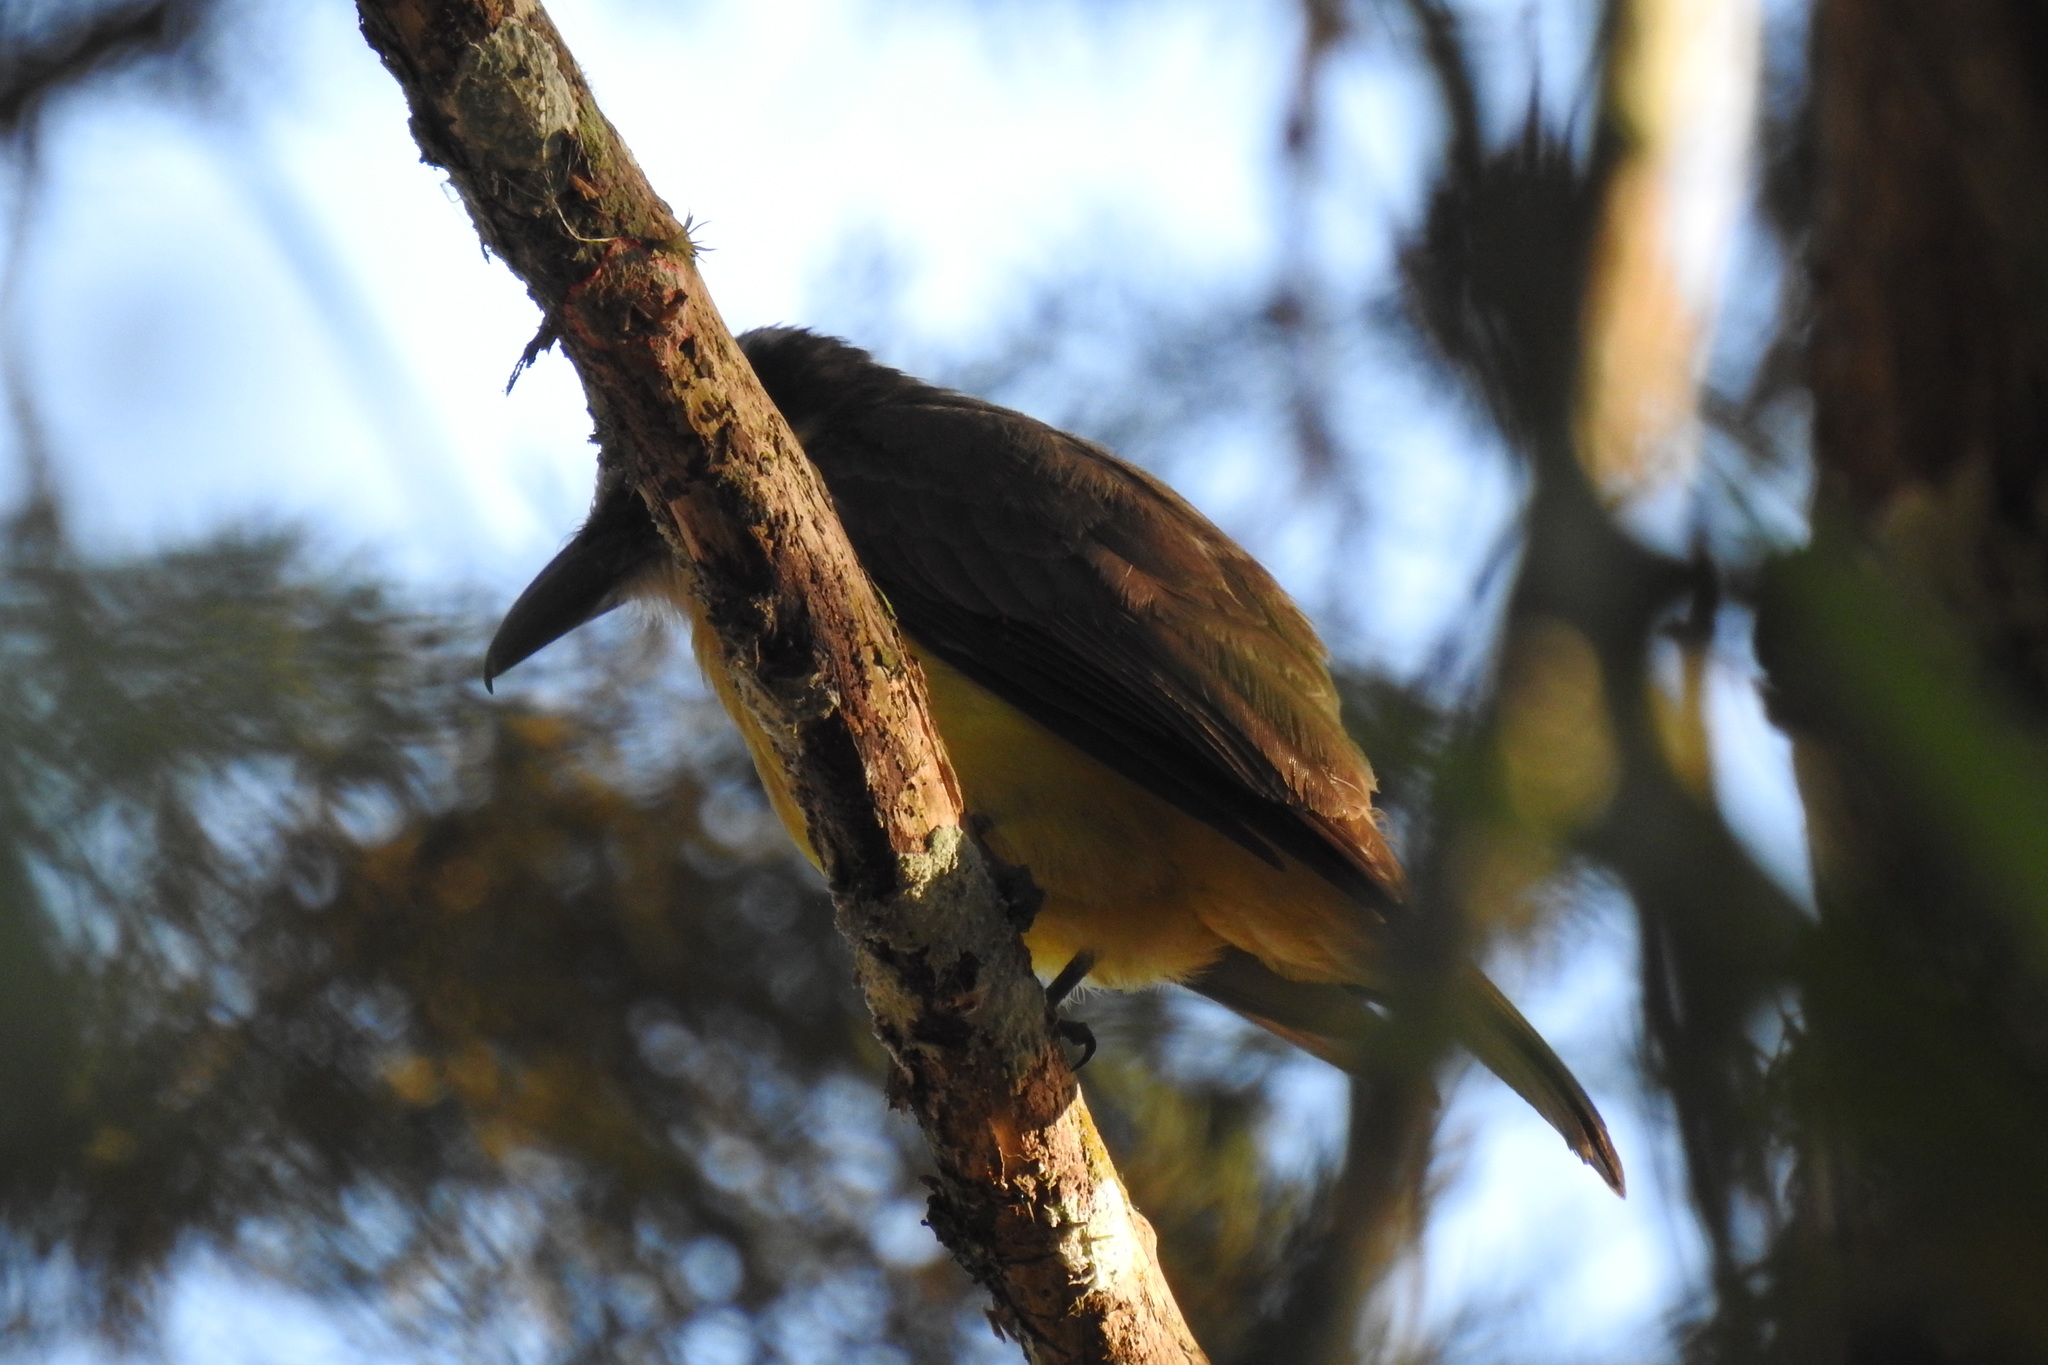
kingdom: Animalia
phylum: Chordata
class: Aves
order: Passeriformes
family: Tyrannidae
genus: Megarynchus
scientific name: Megarynchus pitangua
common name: Boat-billed flycatcher
